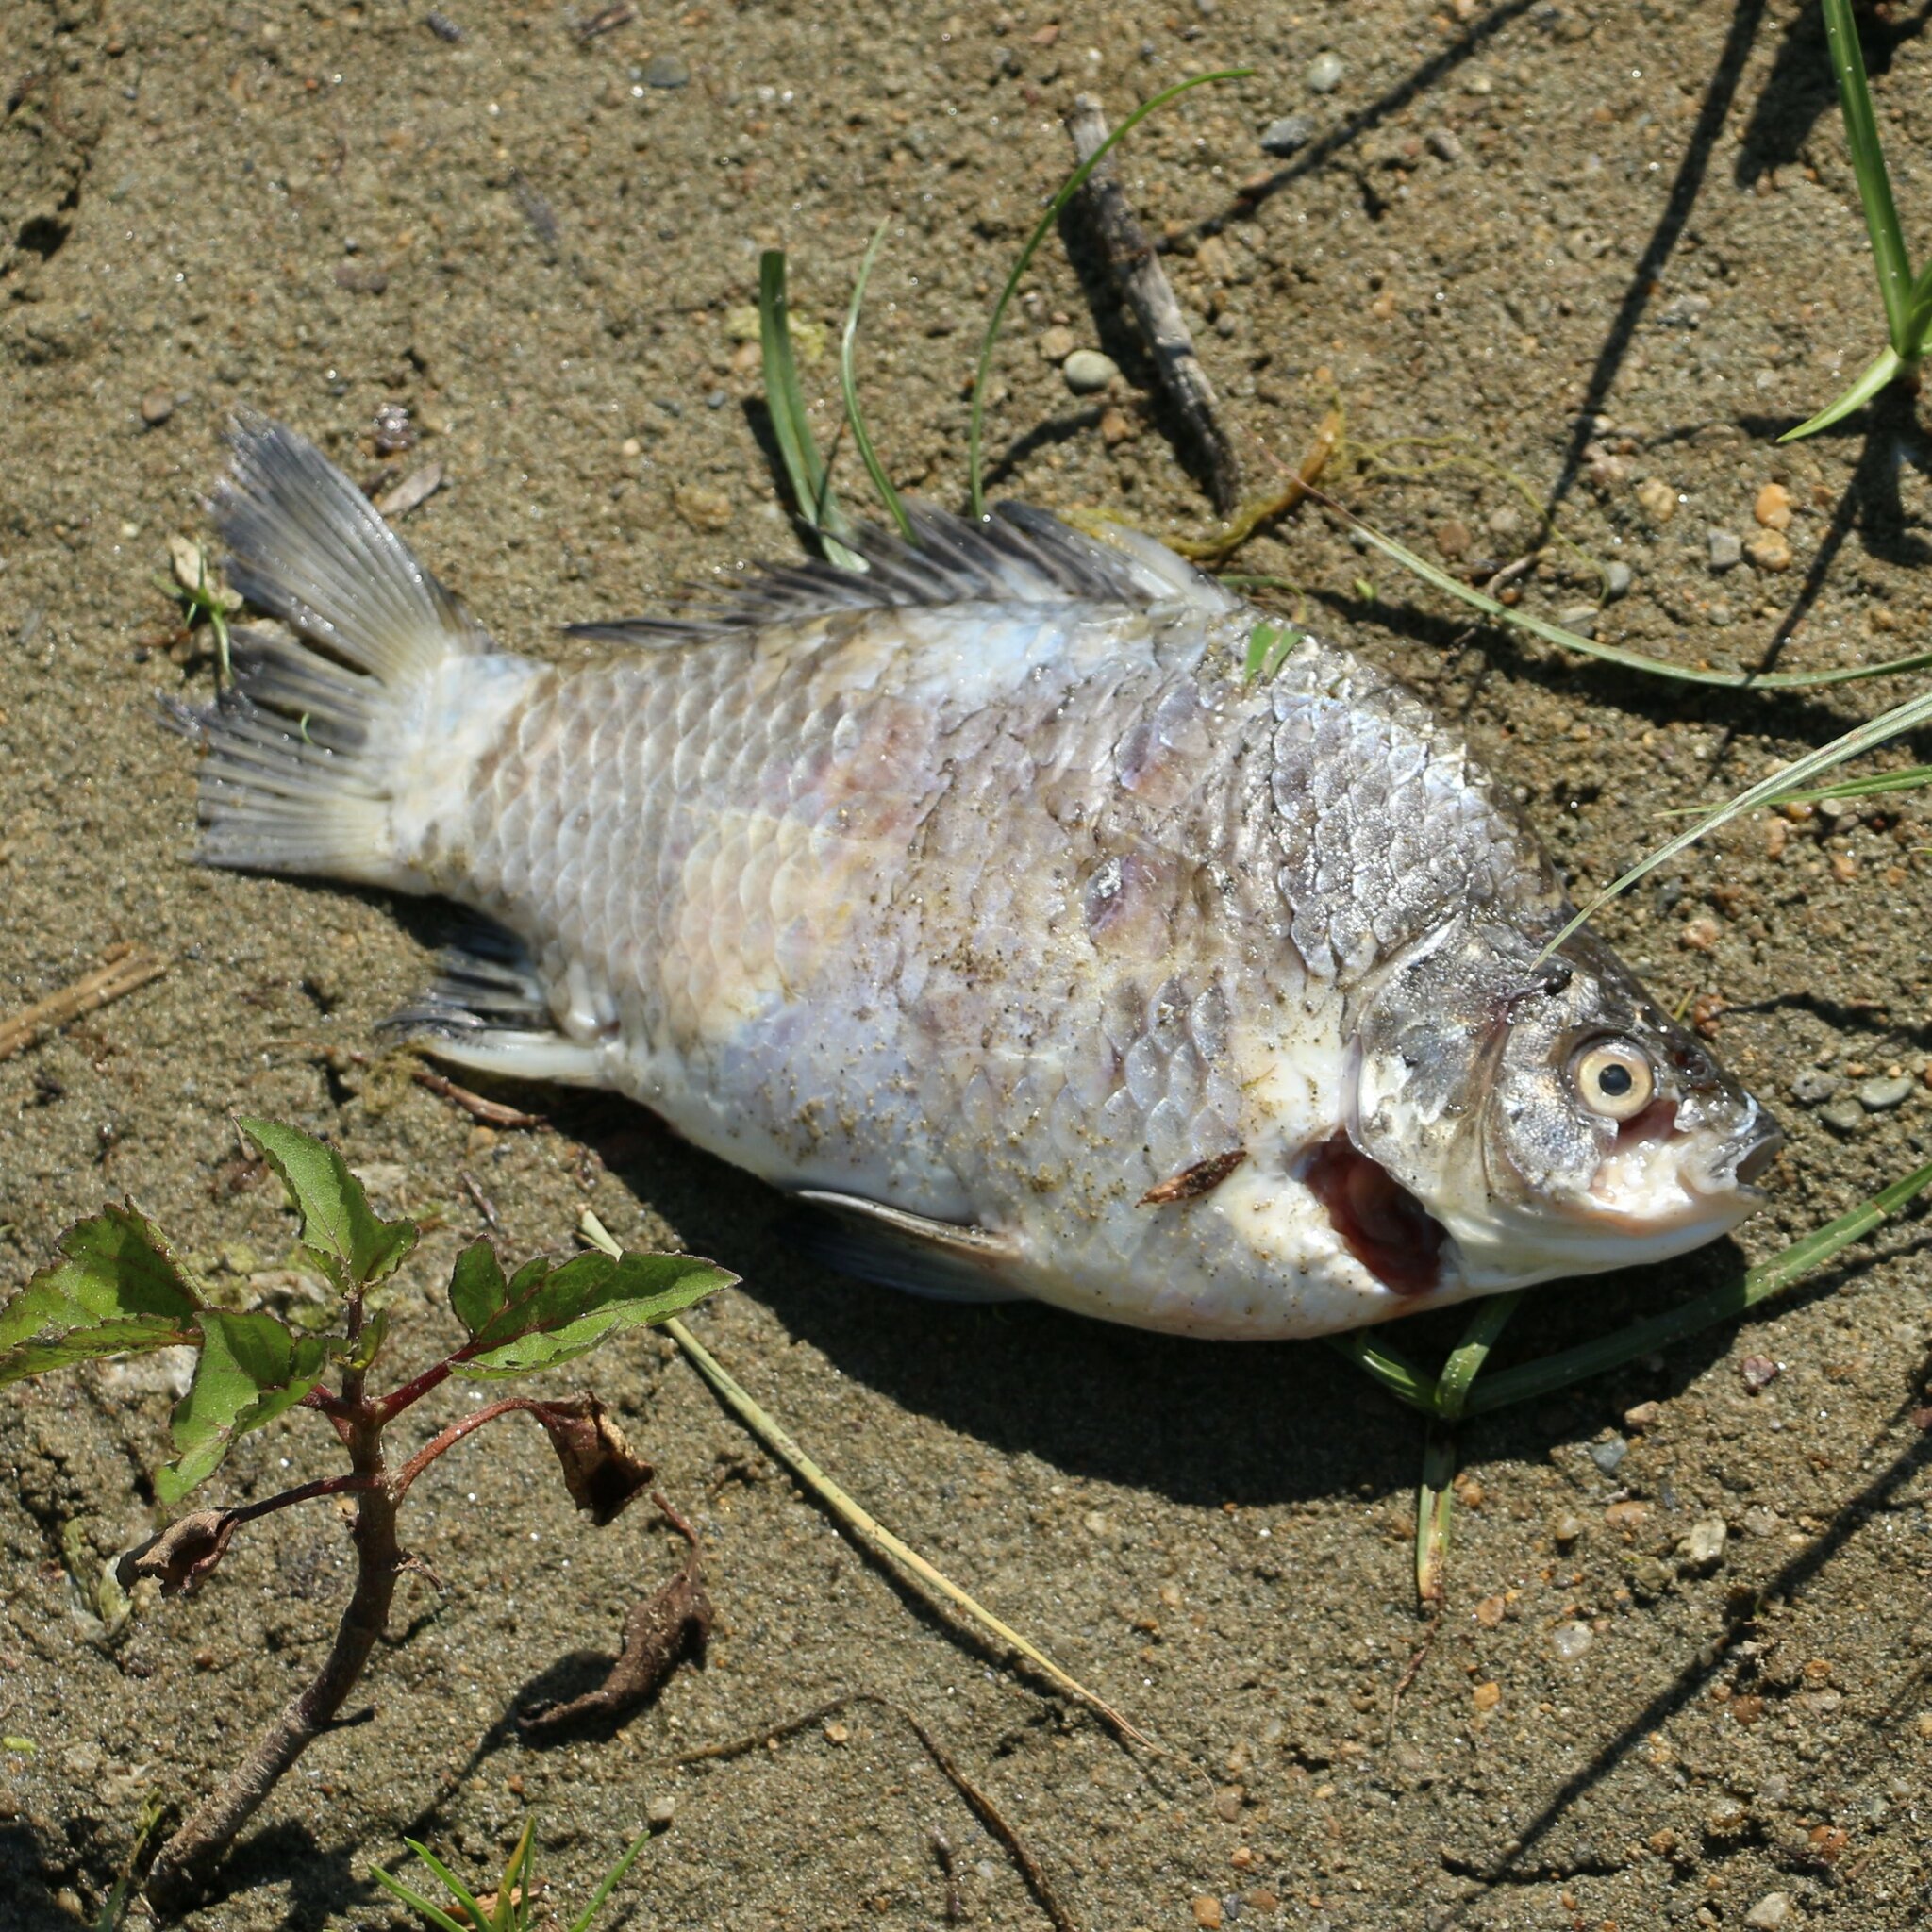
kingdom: Animalia
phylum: Chordata
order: Cypriniformes
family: Cyprinidae
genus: Carassius
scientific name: Carassius gibelio
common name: Prussian carp
